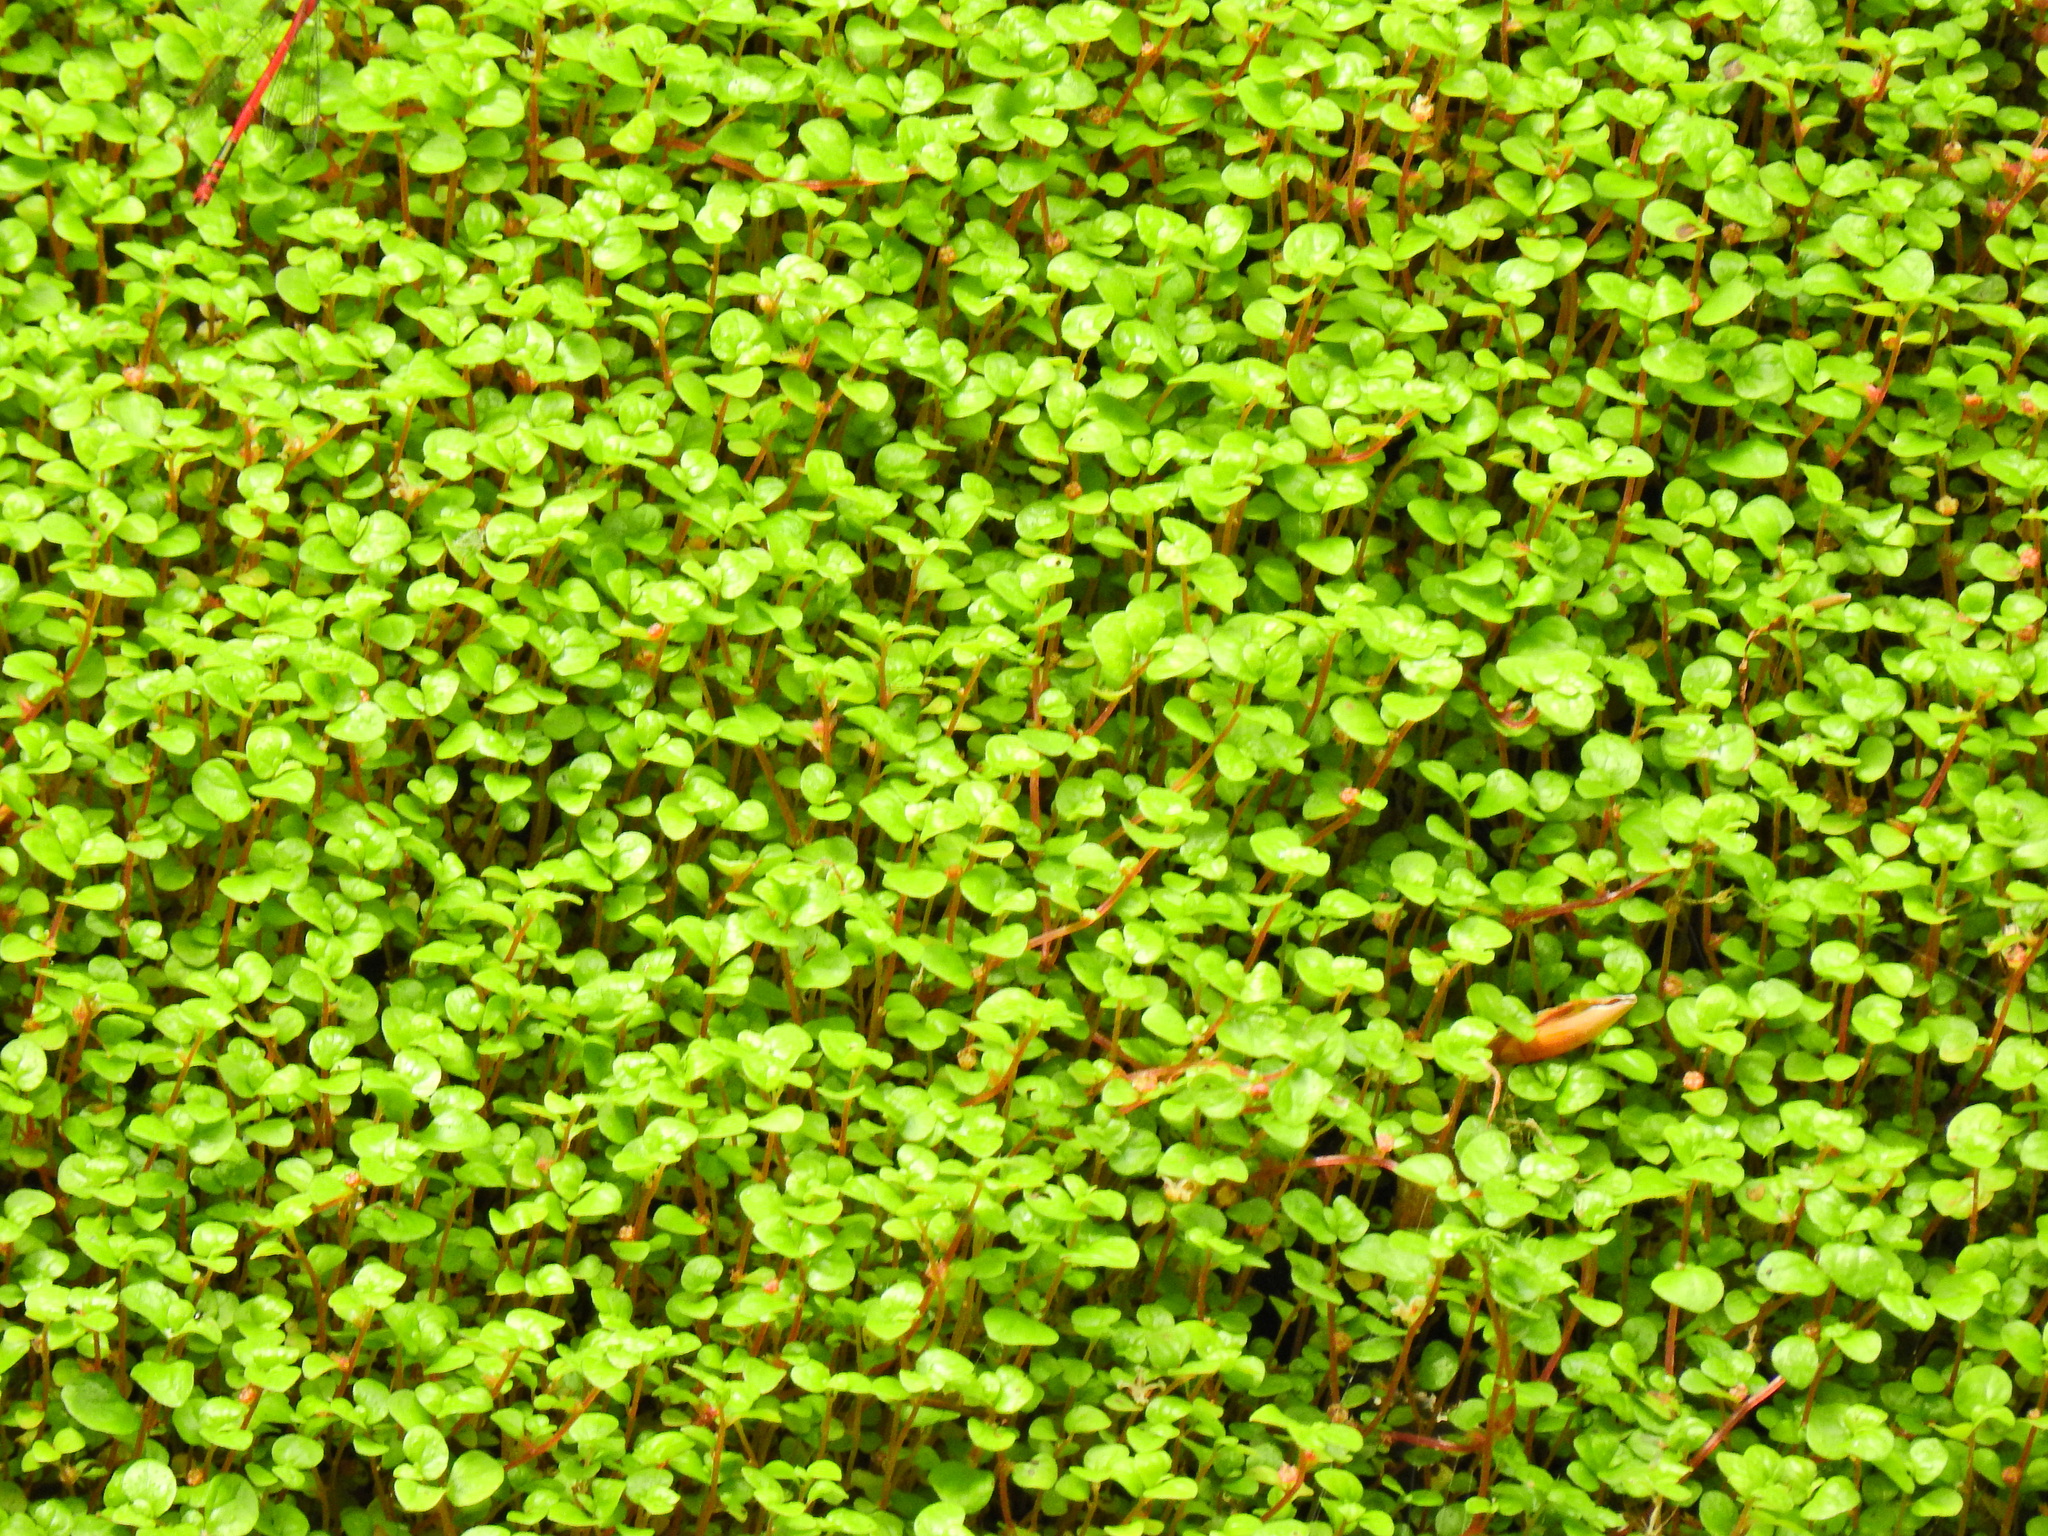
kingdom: Plantae
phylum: Tracheophyta
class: Magnoliopsida
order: Rosales
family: Urticaceae
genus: Soleirolia
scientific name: Soleirolia soleirolii
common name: Mind-your-own-business
